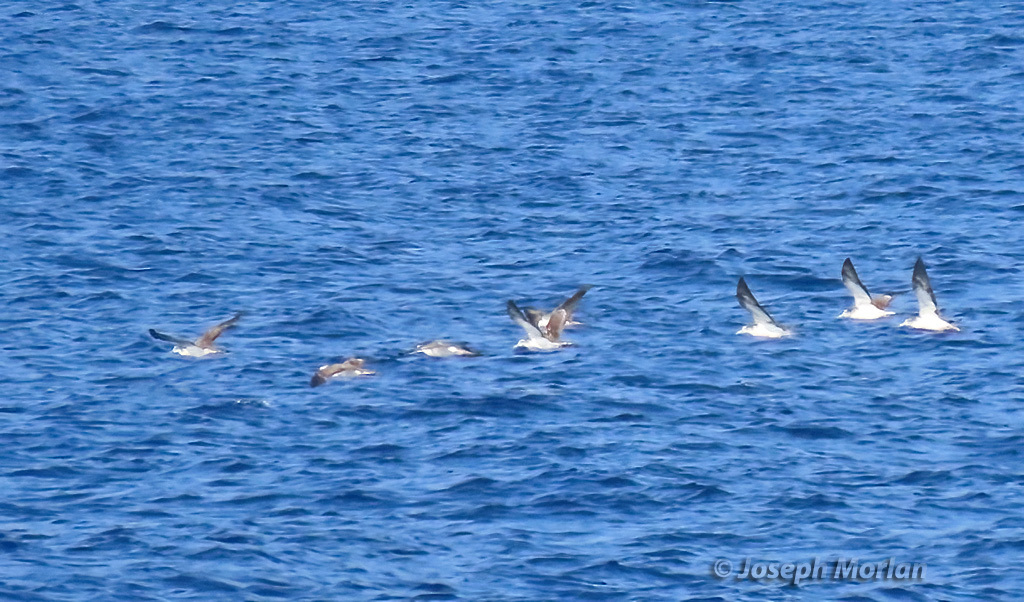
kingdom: Animalia
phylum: Chordata
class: Aves
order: Procellariiformes
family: Procellariidae
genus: Calonectris
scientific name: Calonectris leucomelas
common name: Streaked shearwater
